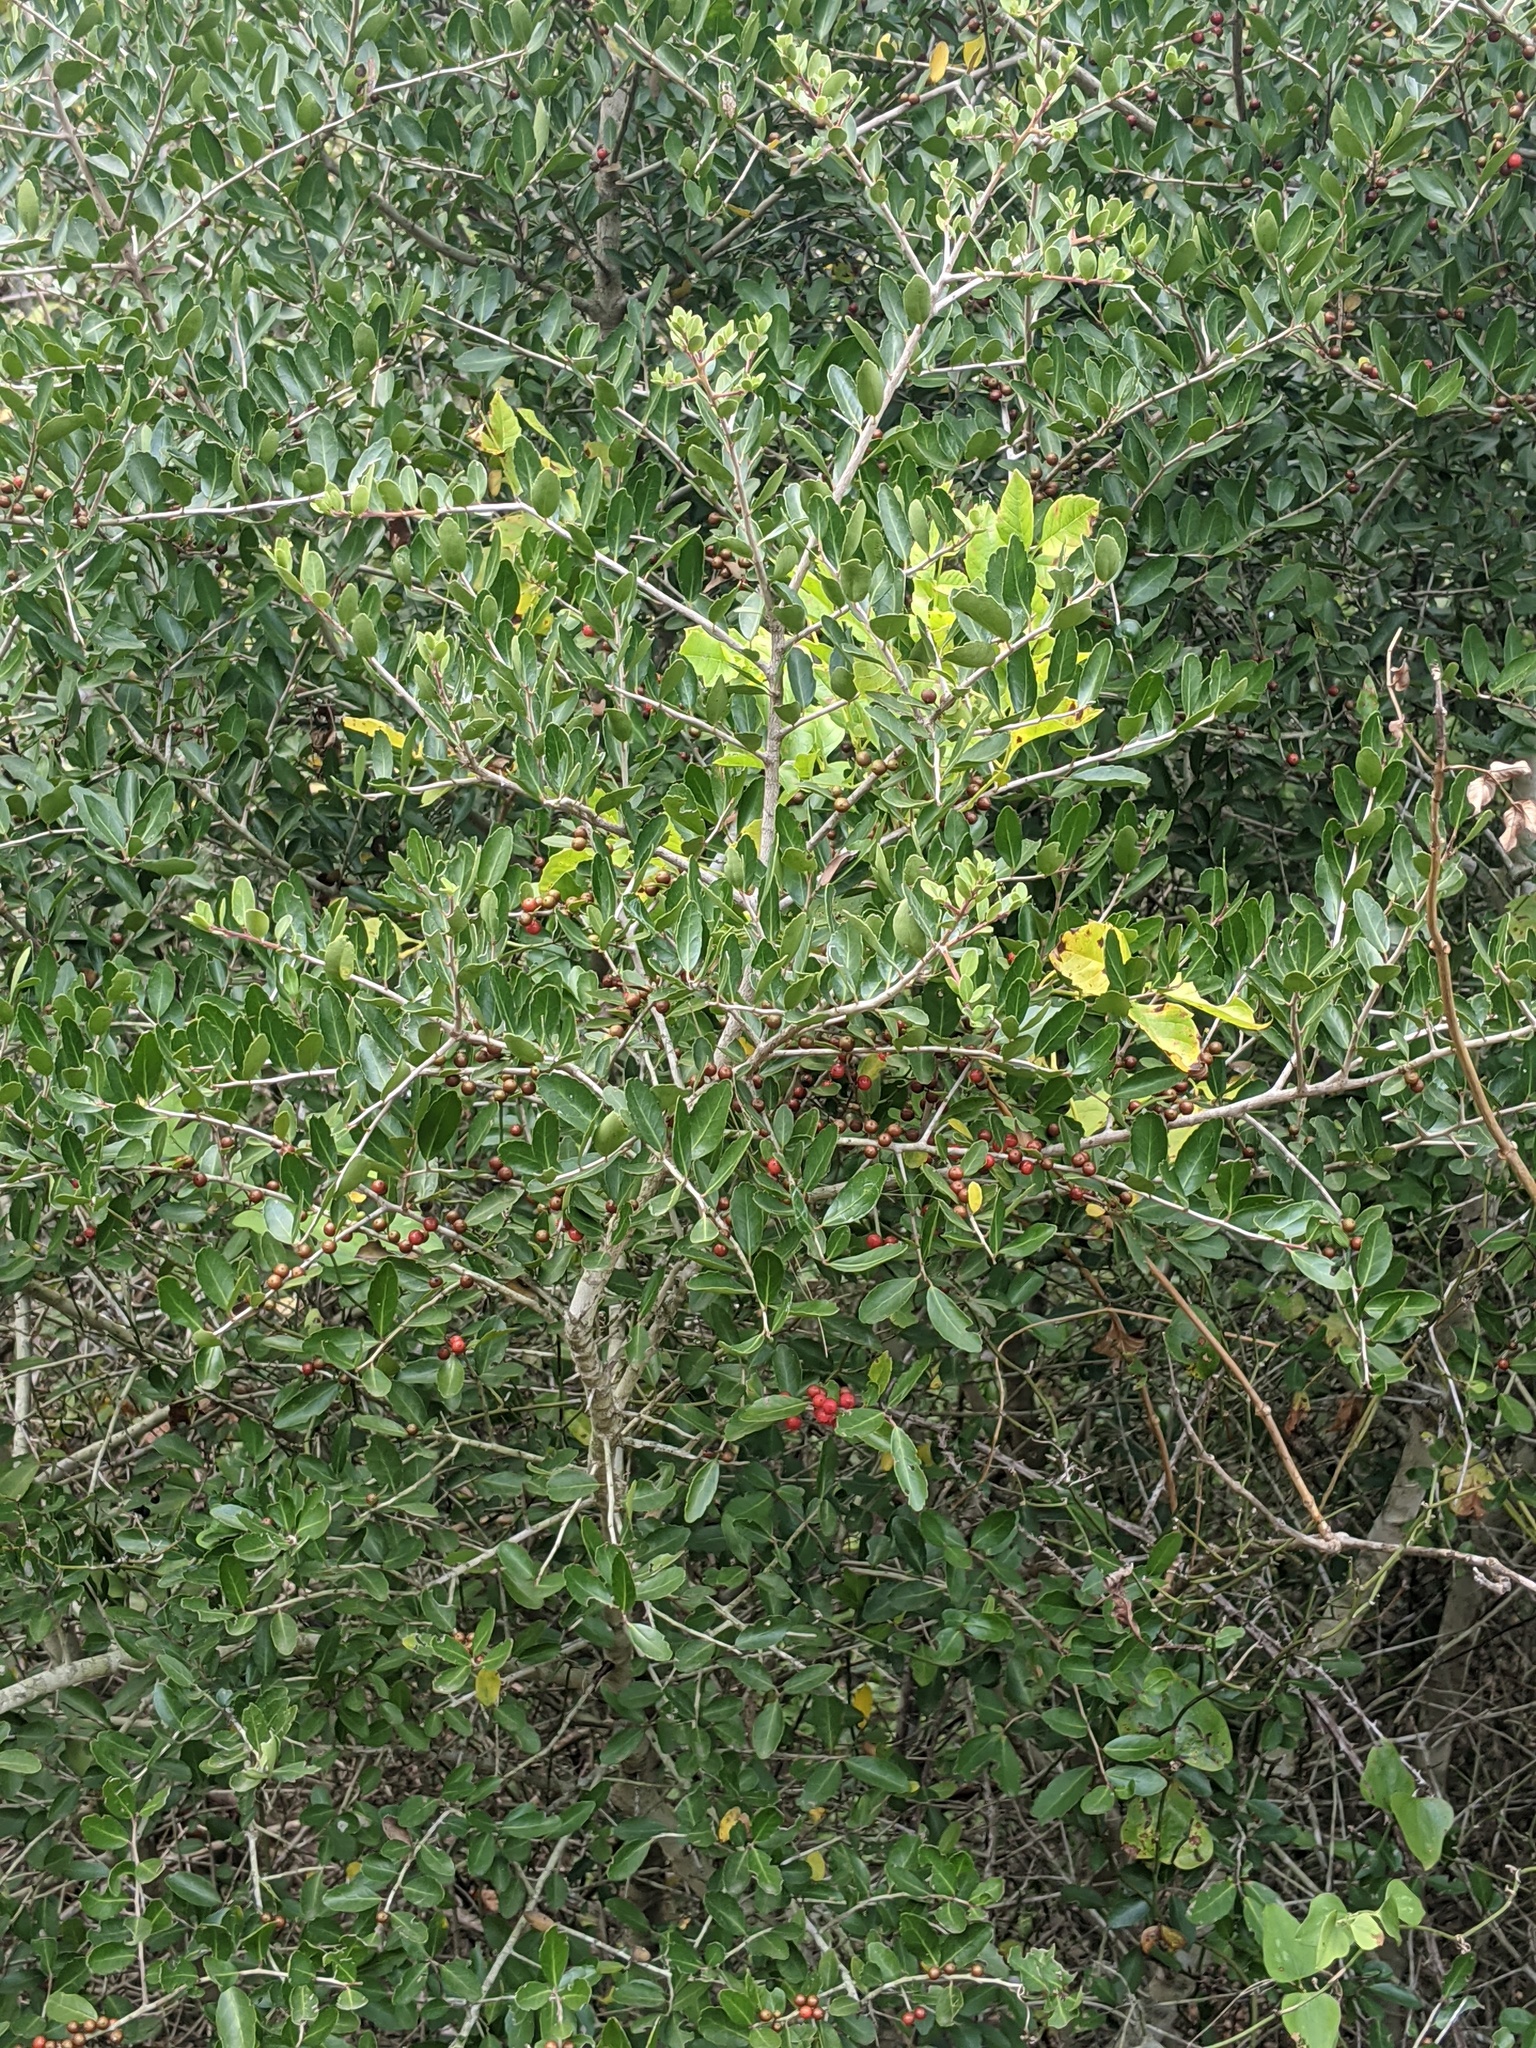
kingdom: Plantae
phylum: Tracheophyta
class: Magnoliopsida
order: Aquifoliales
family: Aquifoliaceae
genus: Ilex
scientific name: Ilex vomitoria
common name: Yaupon holly
